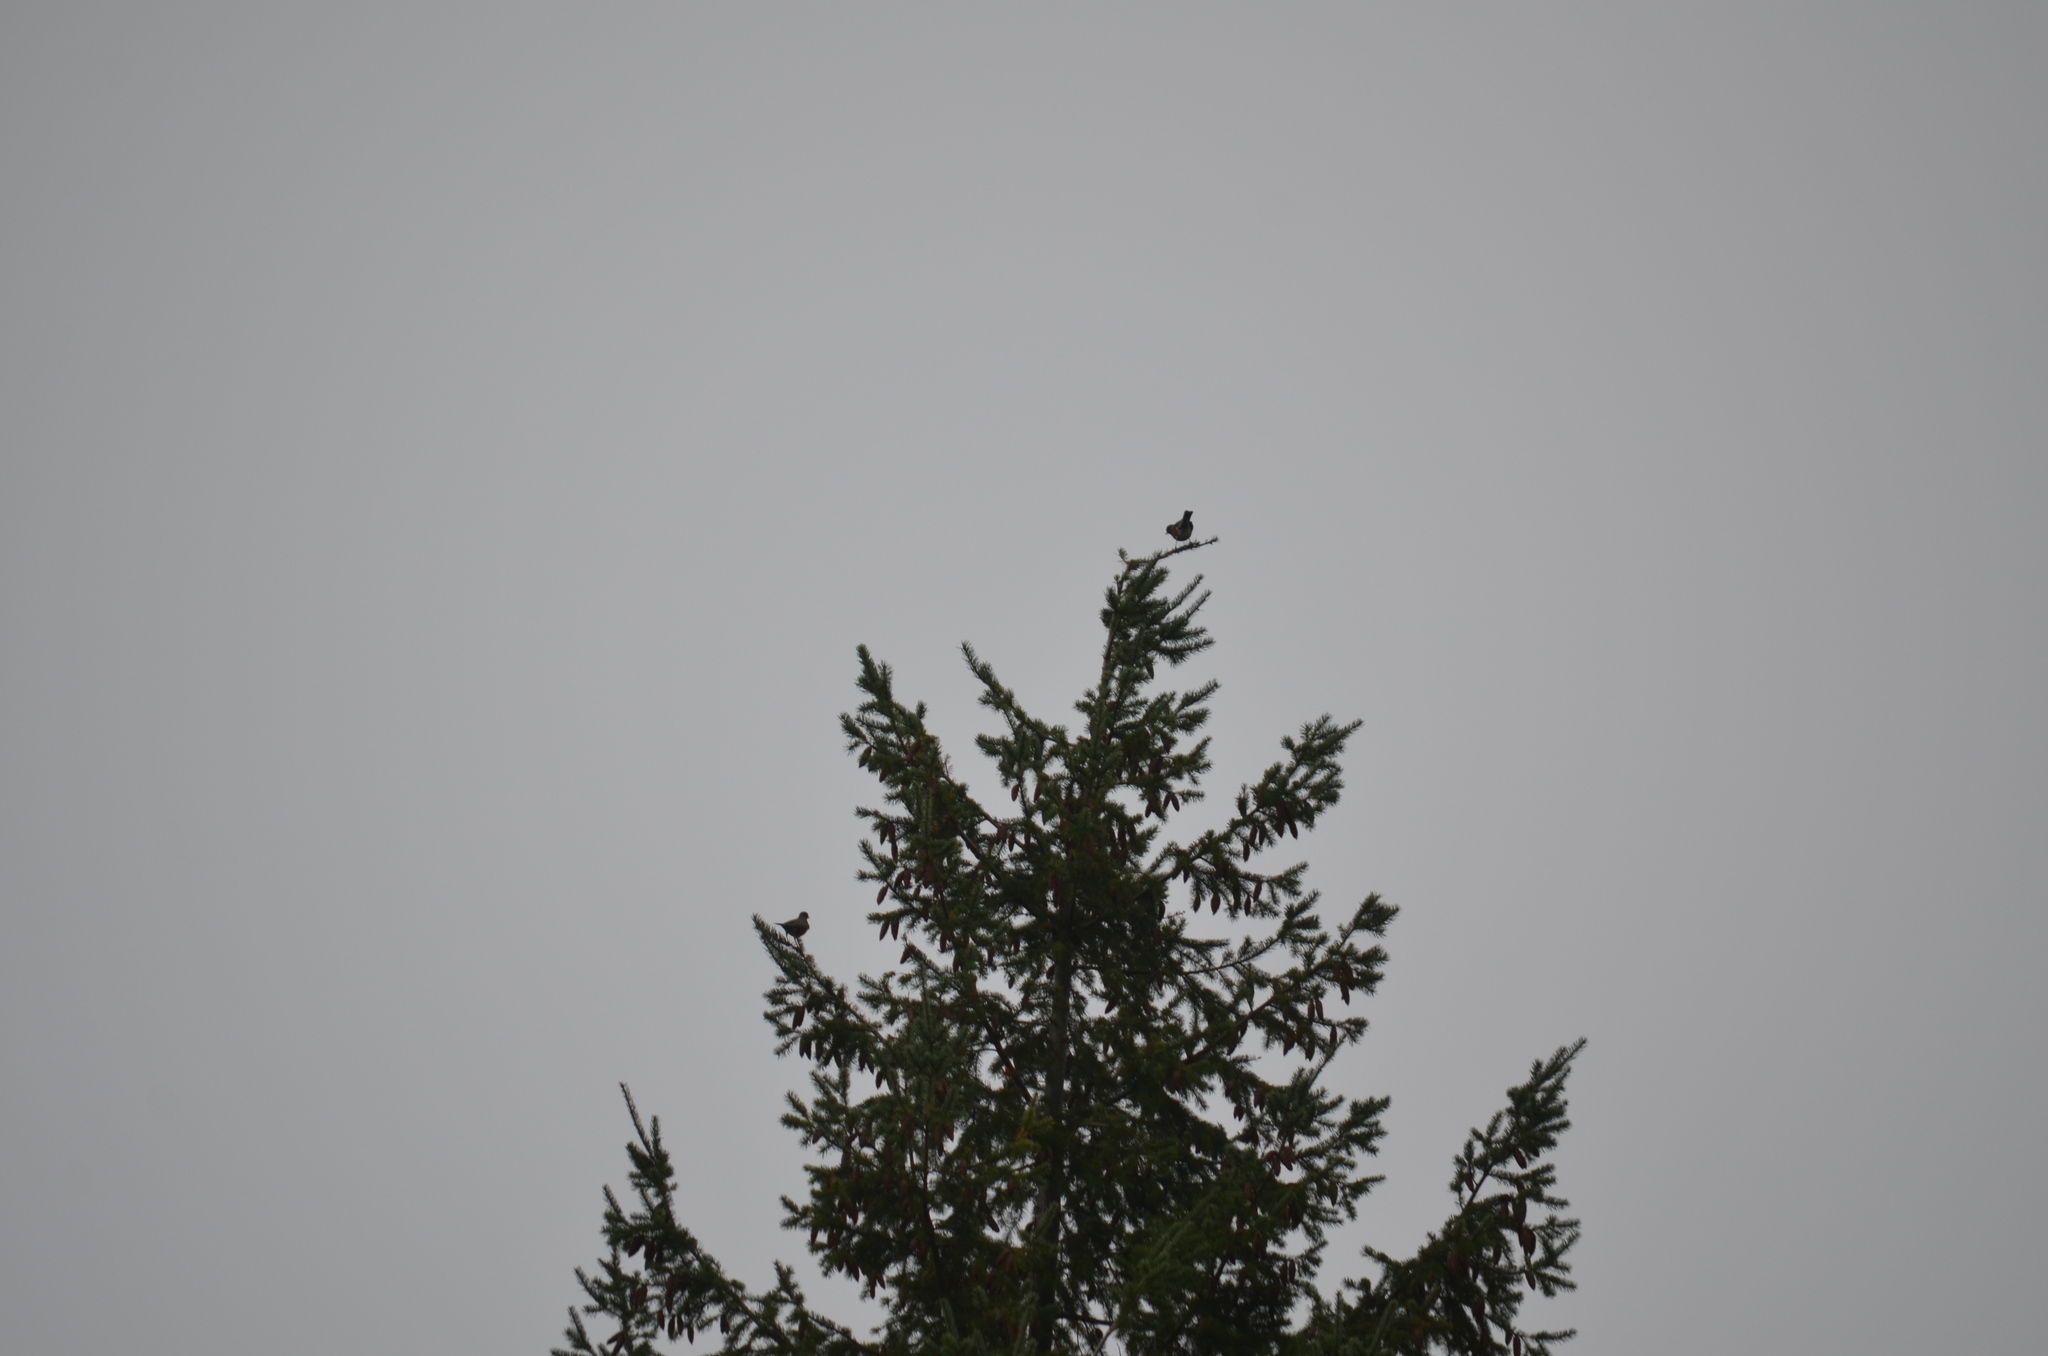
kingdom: Animalia
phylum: Chordata
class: Aves
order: Passeriformes
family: Turdidae
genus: Turdus
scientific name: Turdus migratorius
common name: American robin
